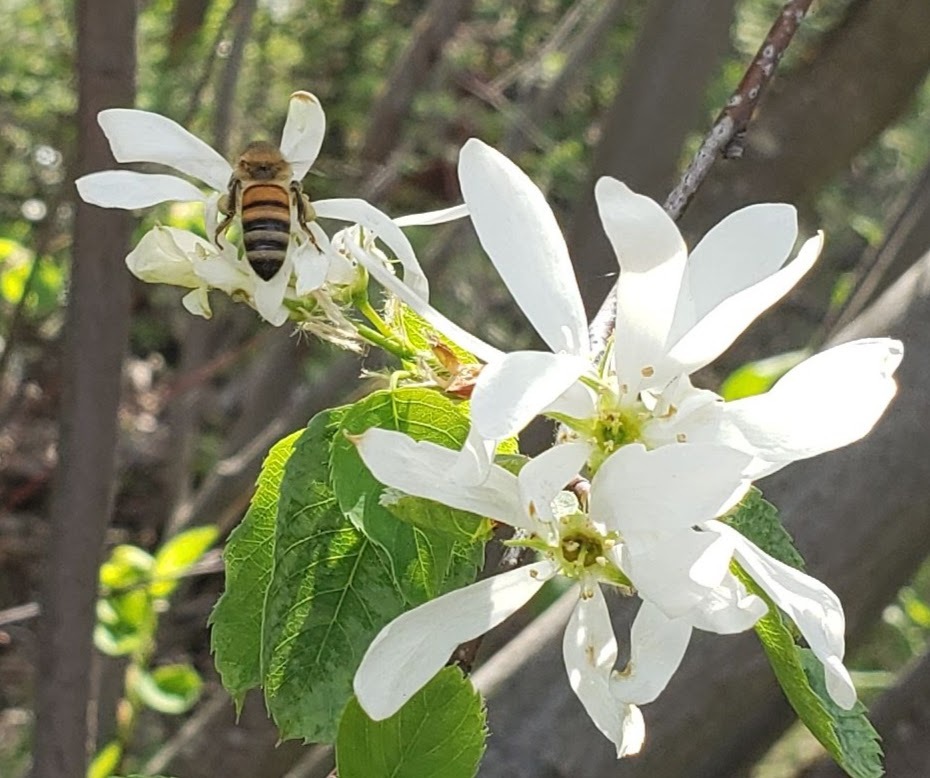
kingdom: Animalia
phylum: Arthropoda
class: Insecta
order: Hymenoptera
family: Apidae
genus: Apis
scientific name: Apis mellifera
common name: Honey bee
